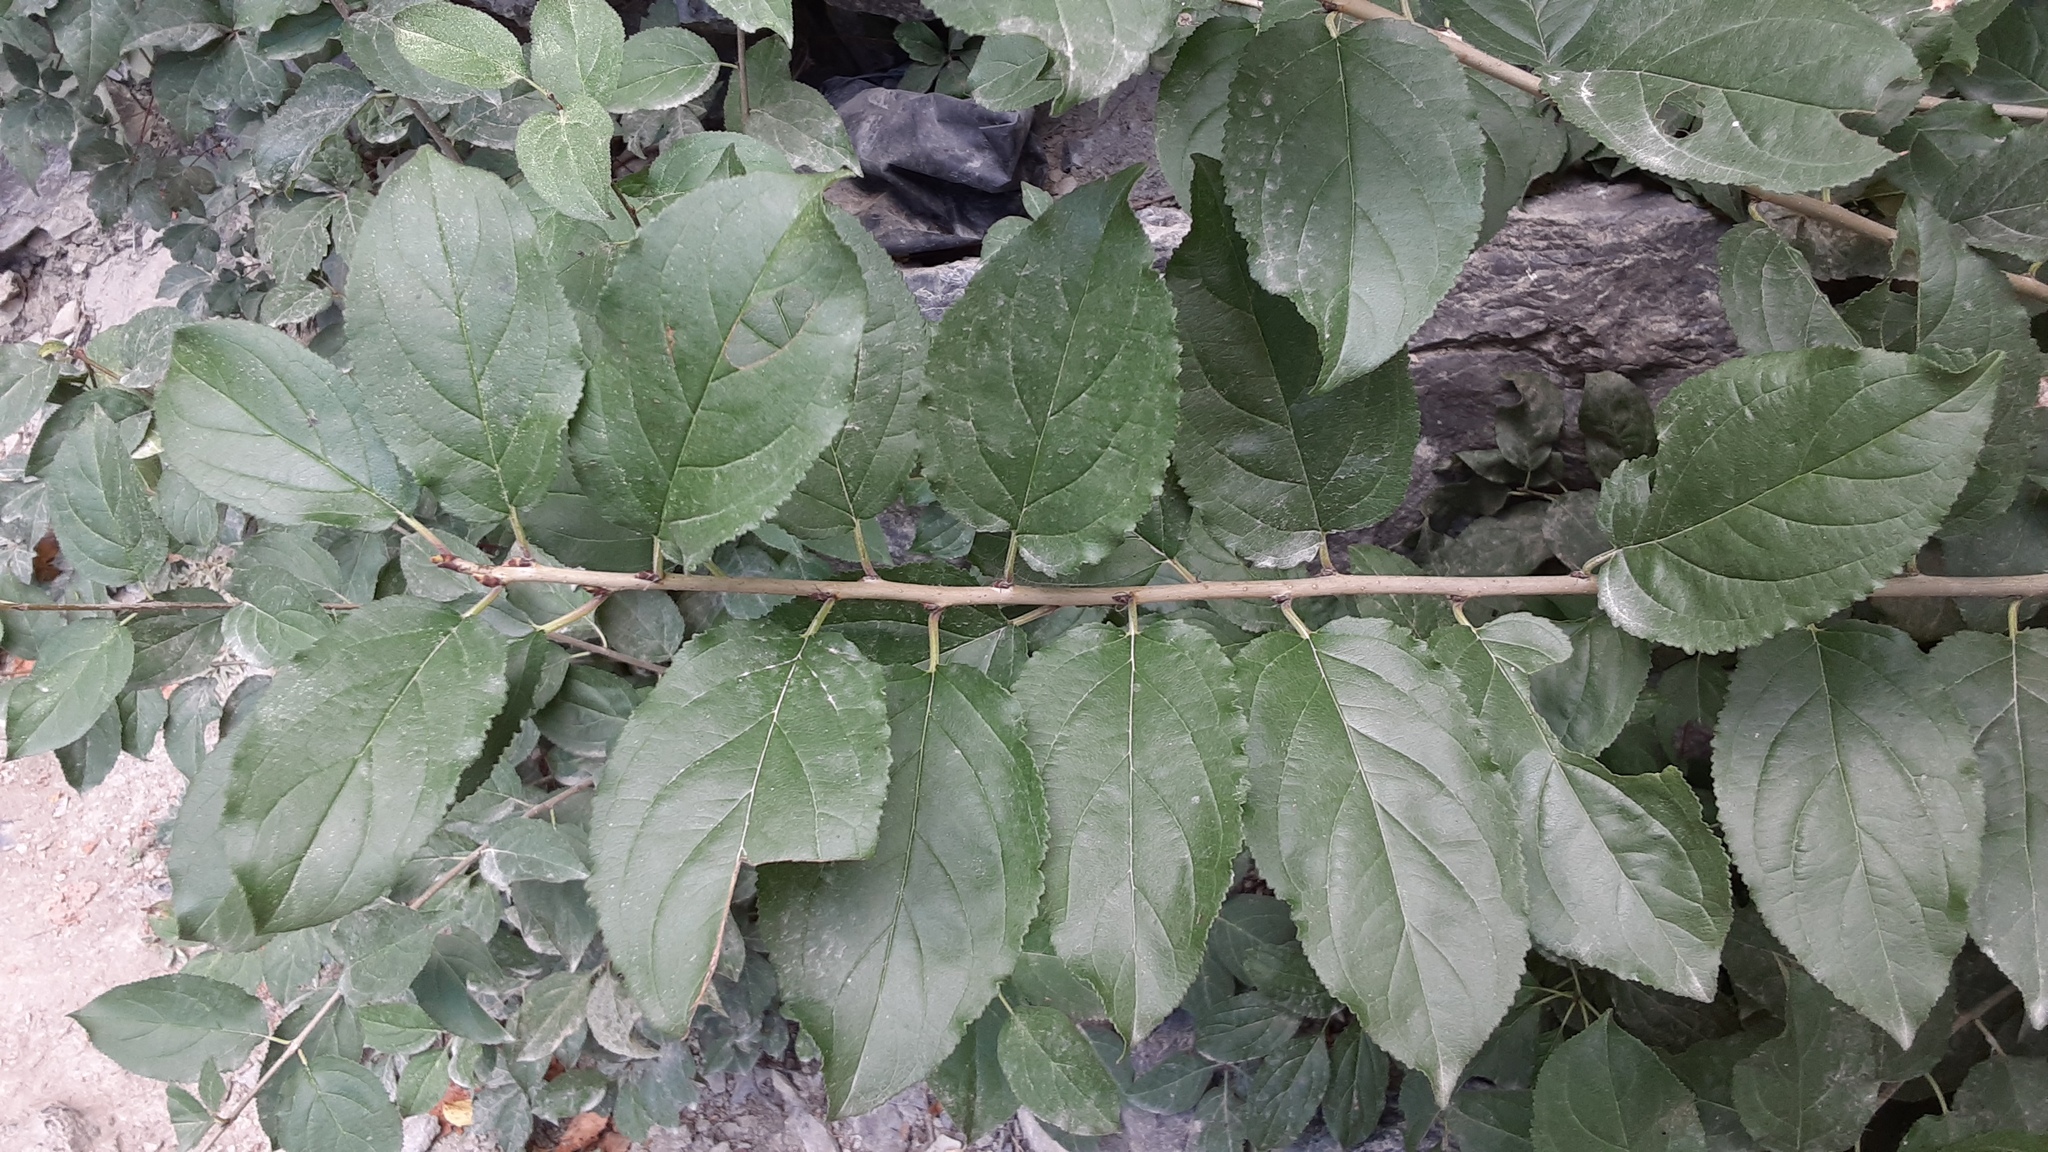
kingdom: Plantae
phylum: Tracheophyta
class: Magnoliopsida
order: Rosales
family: Rhamnaceae
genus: Rhamnus
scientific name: Rhamnus cathartica
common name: Common buckthorn
